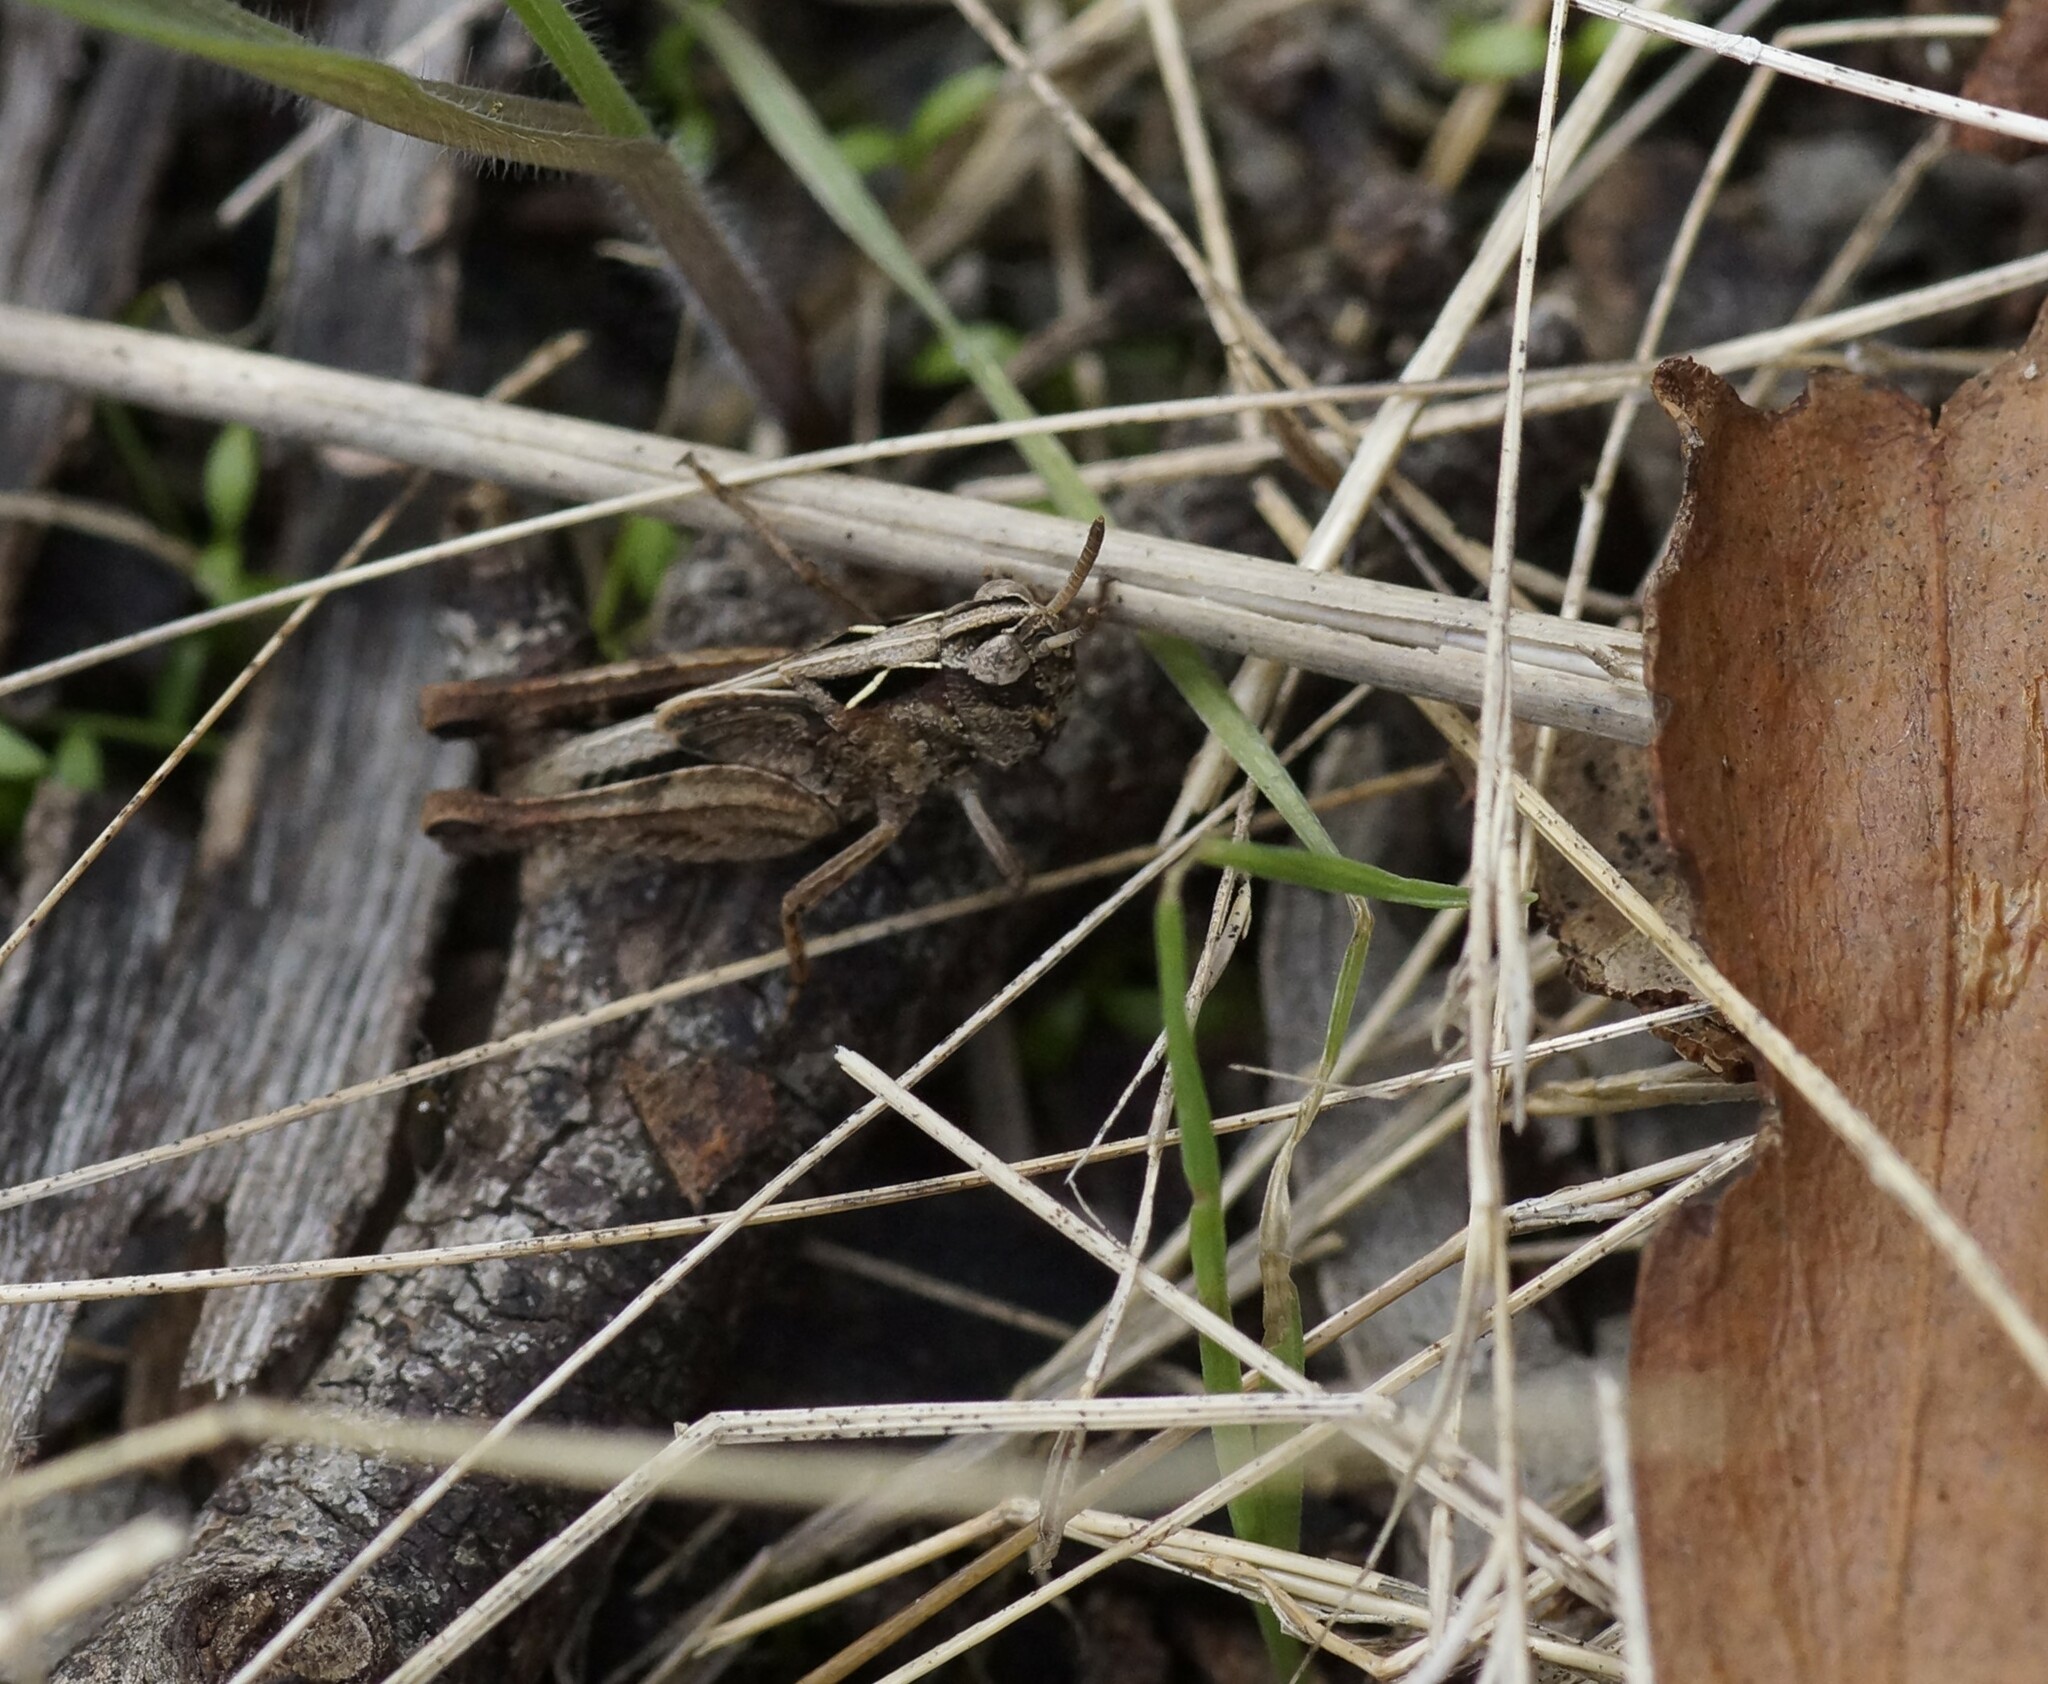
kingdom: Animalia
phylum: Arthropoda
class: Insecta
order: Orthoptera
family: Acrididae
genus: Cryptobothrus
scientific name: Cryptobothrus chrysophorus
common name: Golden bandwing
